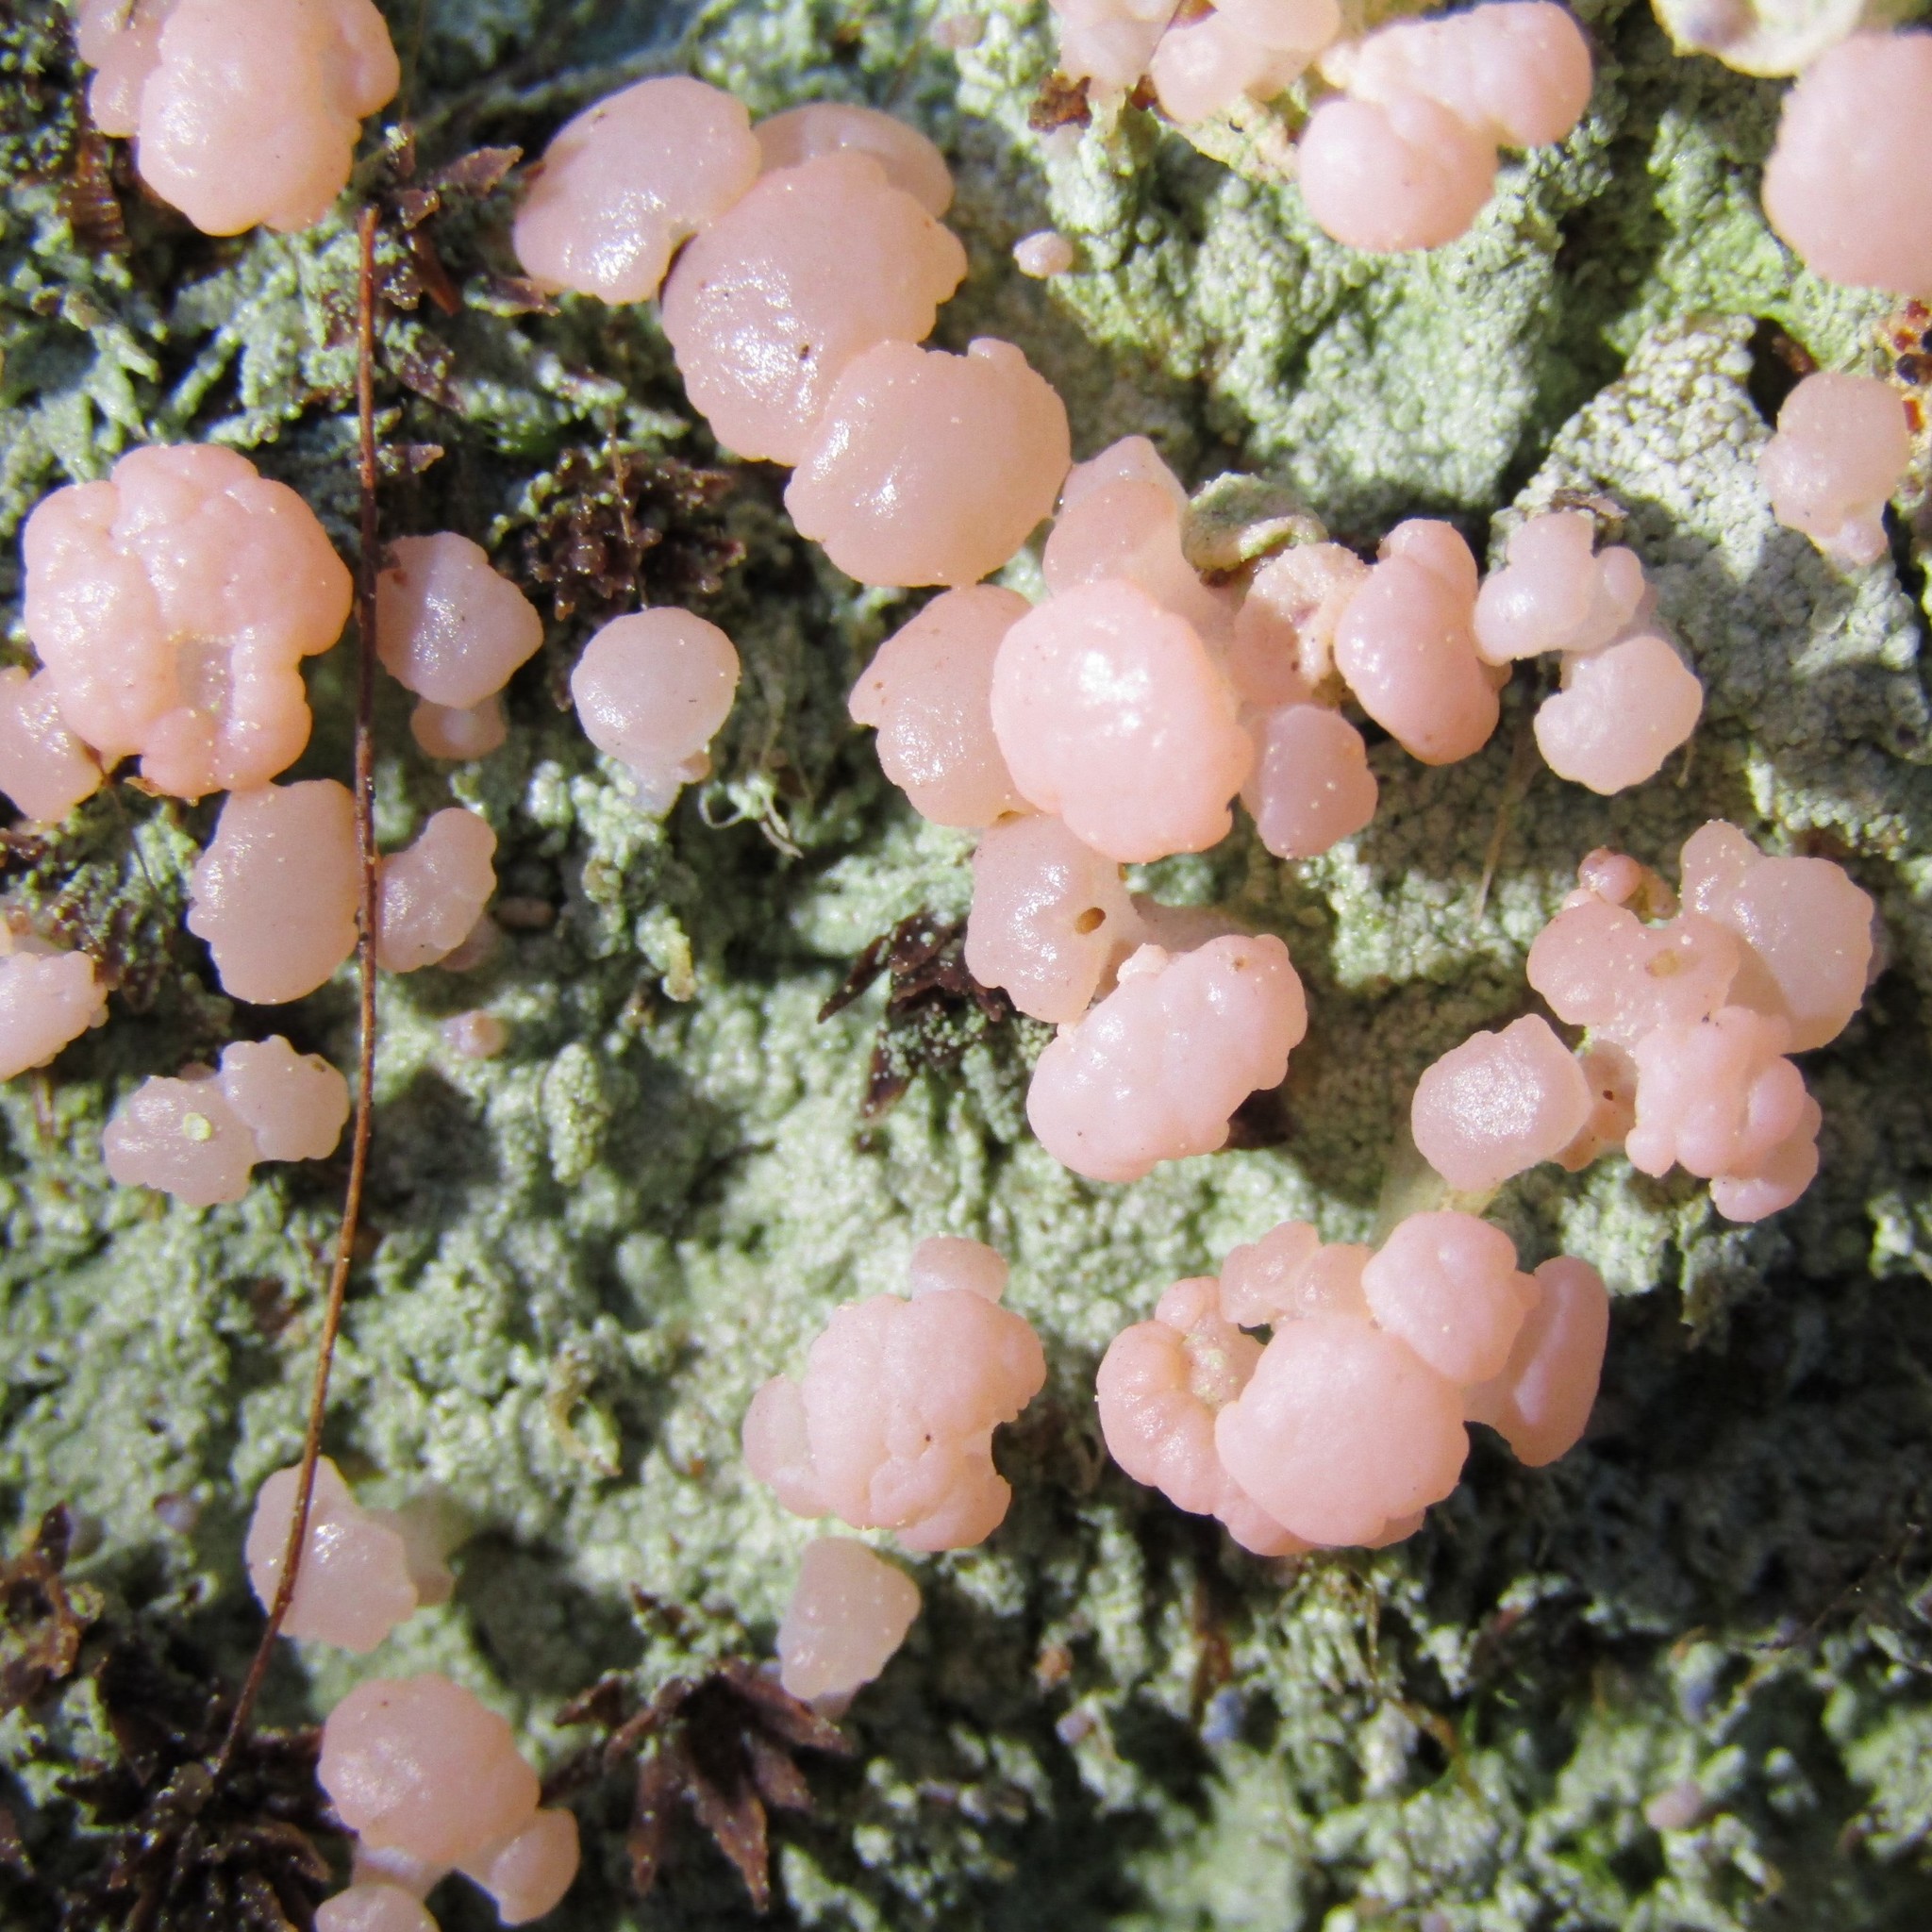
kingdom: Fungi
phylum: Ascomycota
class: Lecanoromycetes
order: Baeomycetales
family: Baeomycetaceae
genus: Baeomyces
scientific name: Baeomyces heteromorphus
